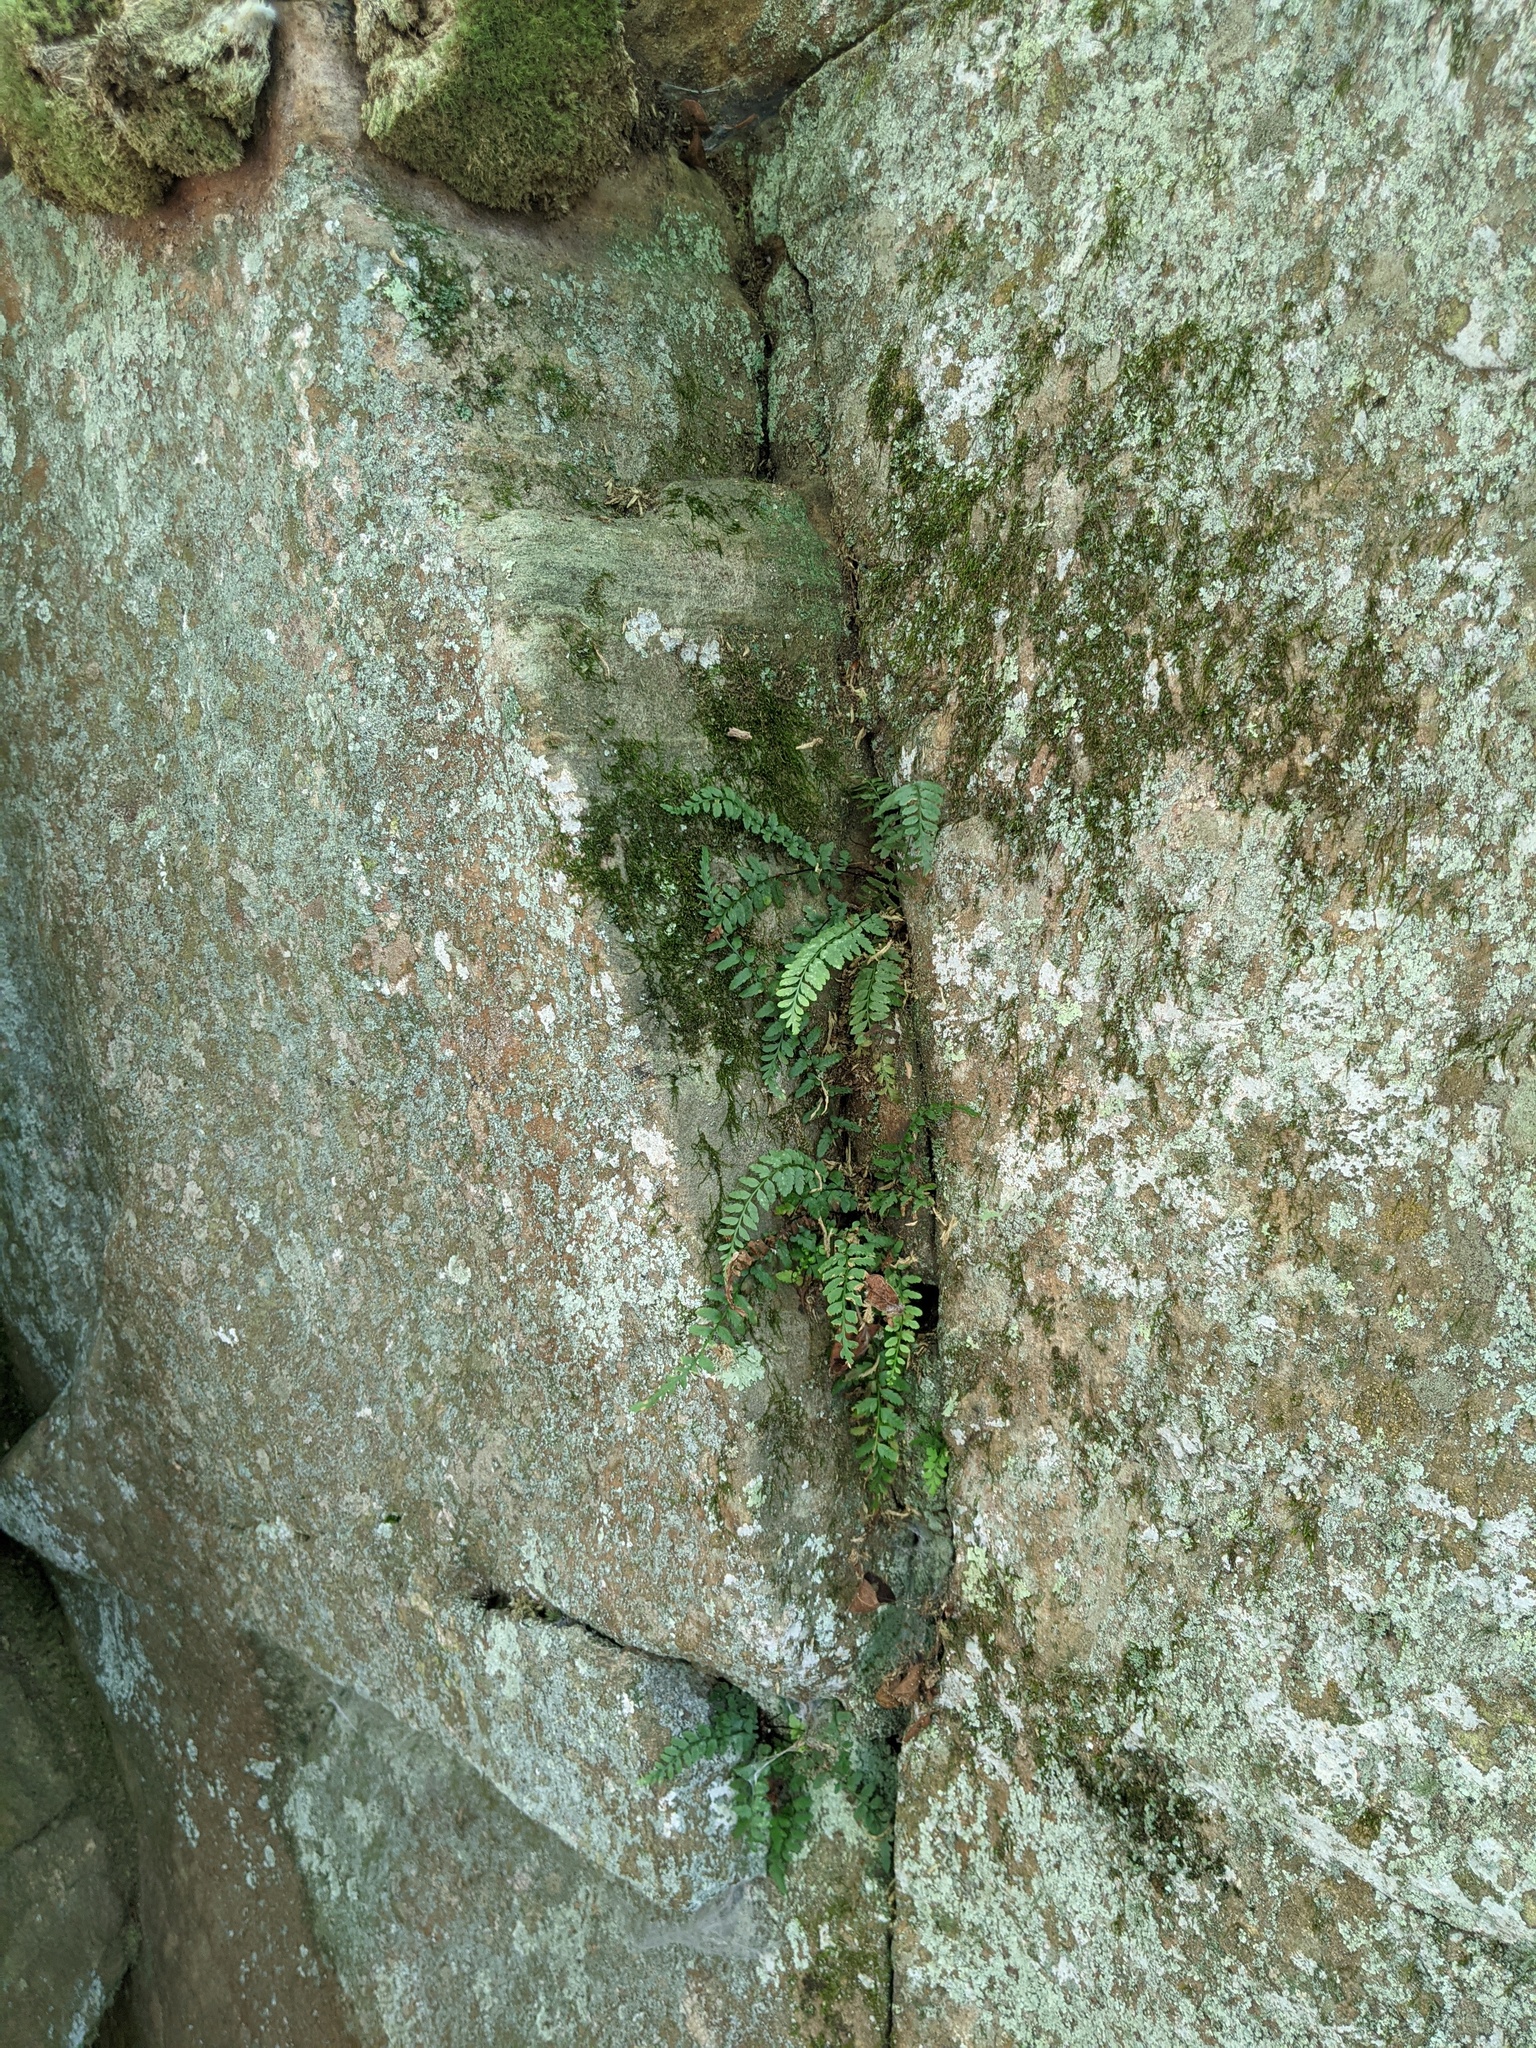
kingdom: Plantae
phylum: Tracheophyta
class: Polypodiopsida
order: Polypodiales
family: Aspleniaceae
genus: Asplenium
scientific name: Asplenium bradleyi
